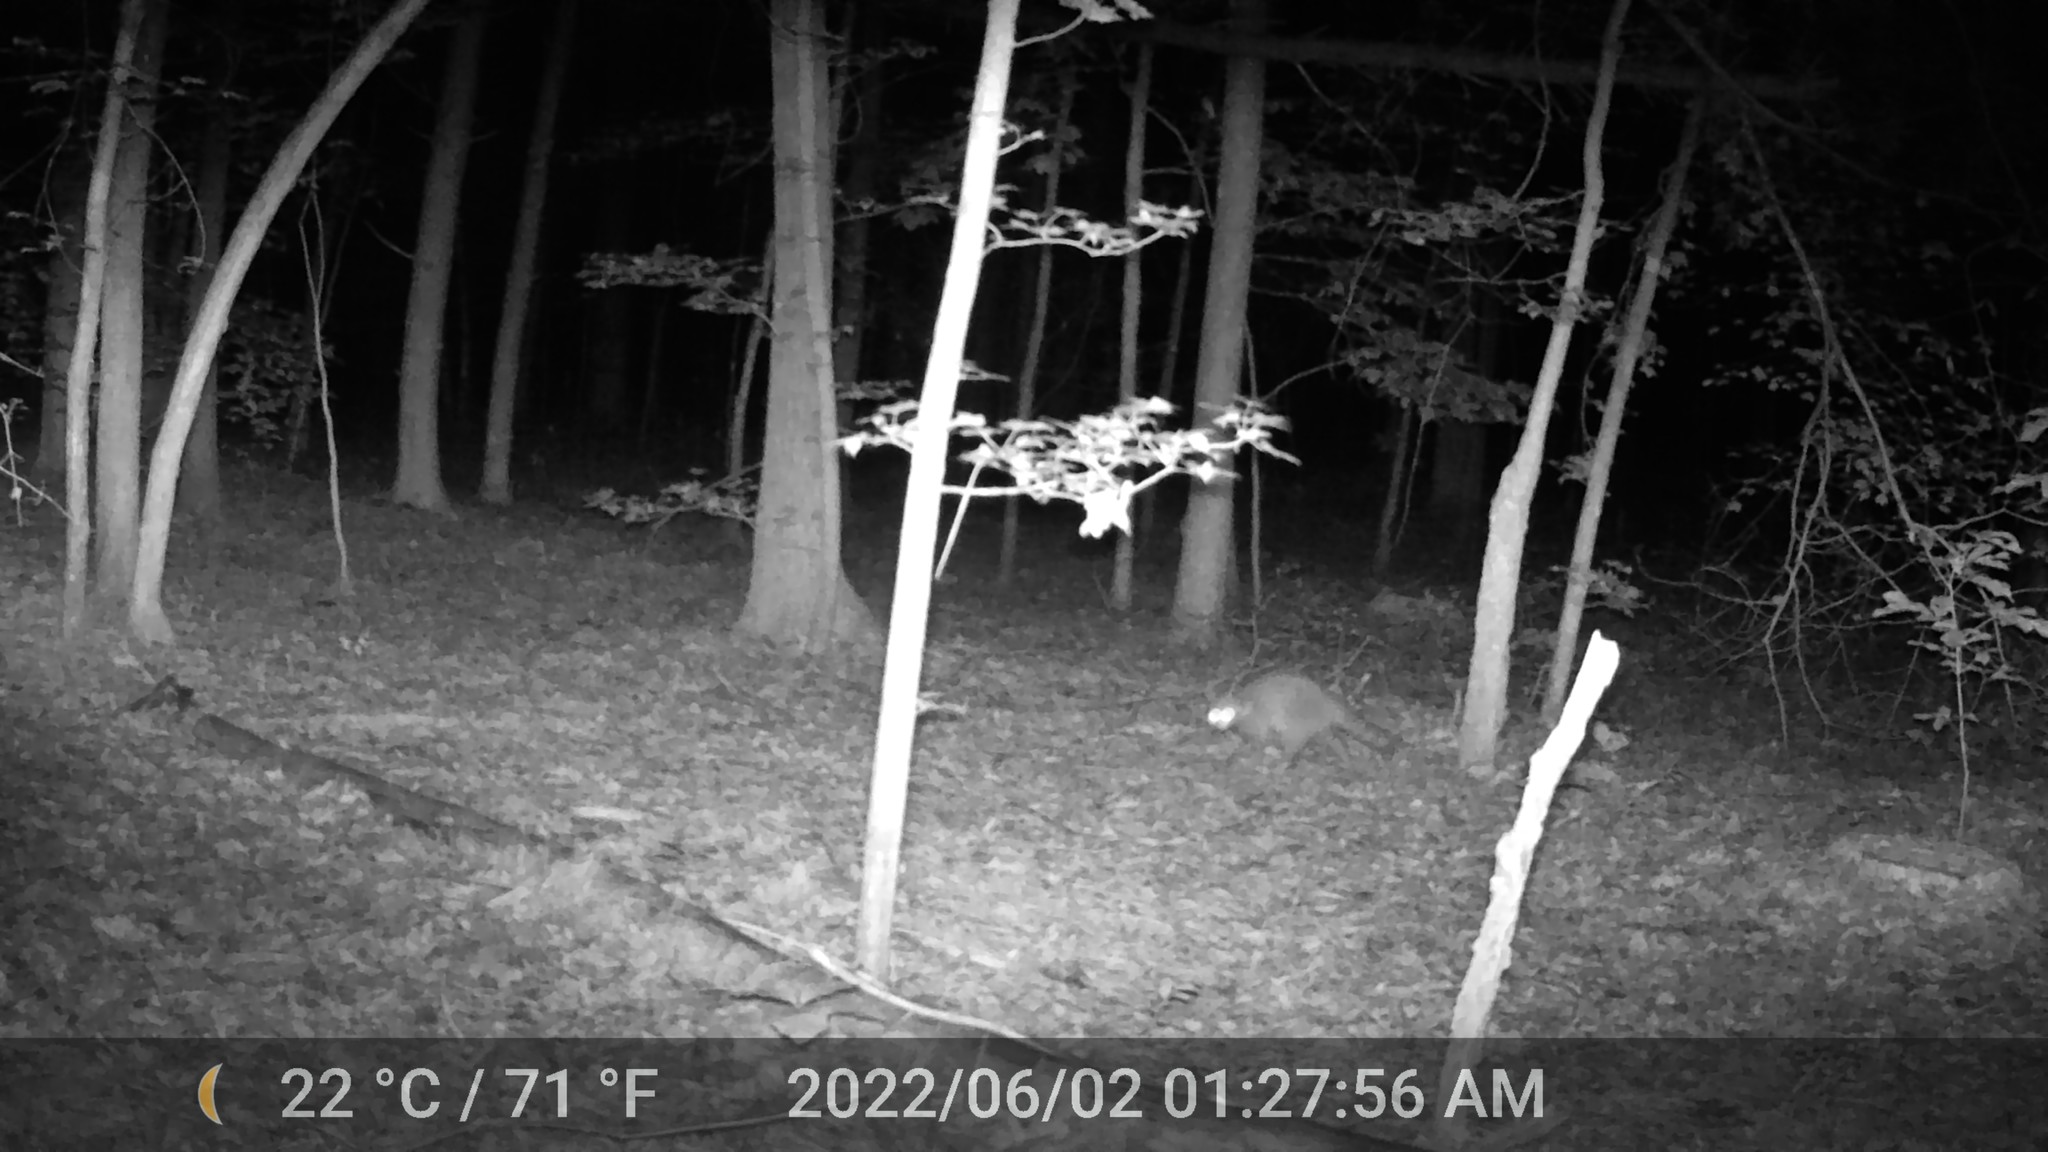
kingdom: Animalia
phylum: Chordata
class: Mammalia
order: Carnivora
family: Procyonidae
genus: Procyon
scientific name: Procyon lotor
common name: Raccoon
